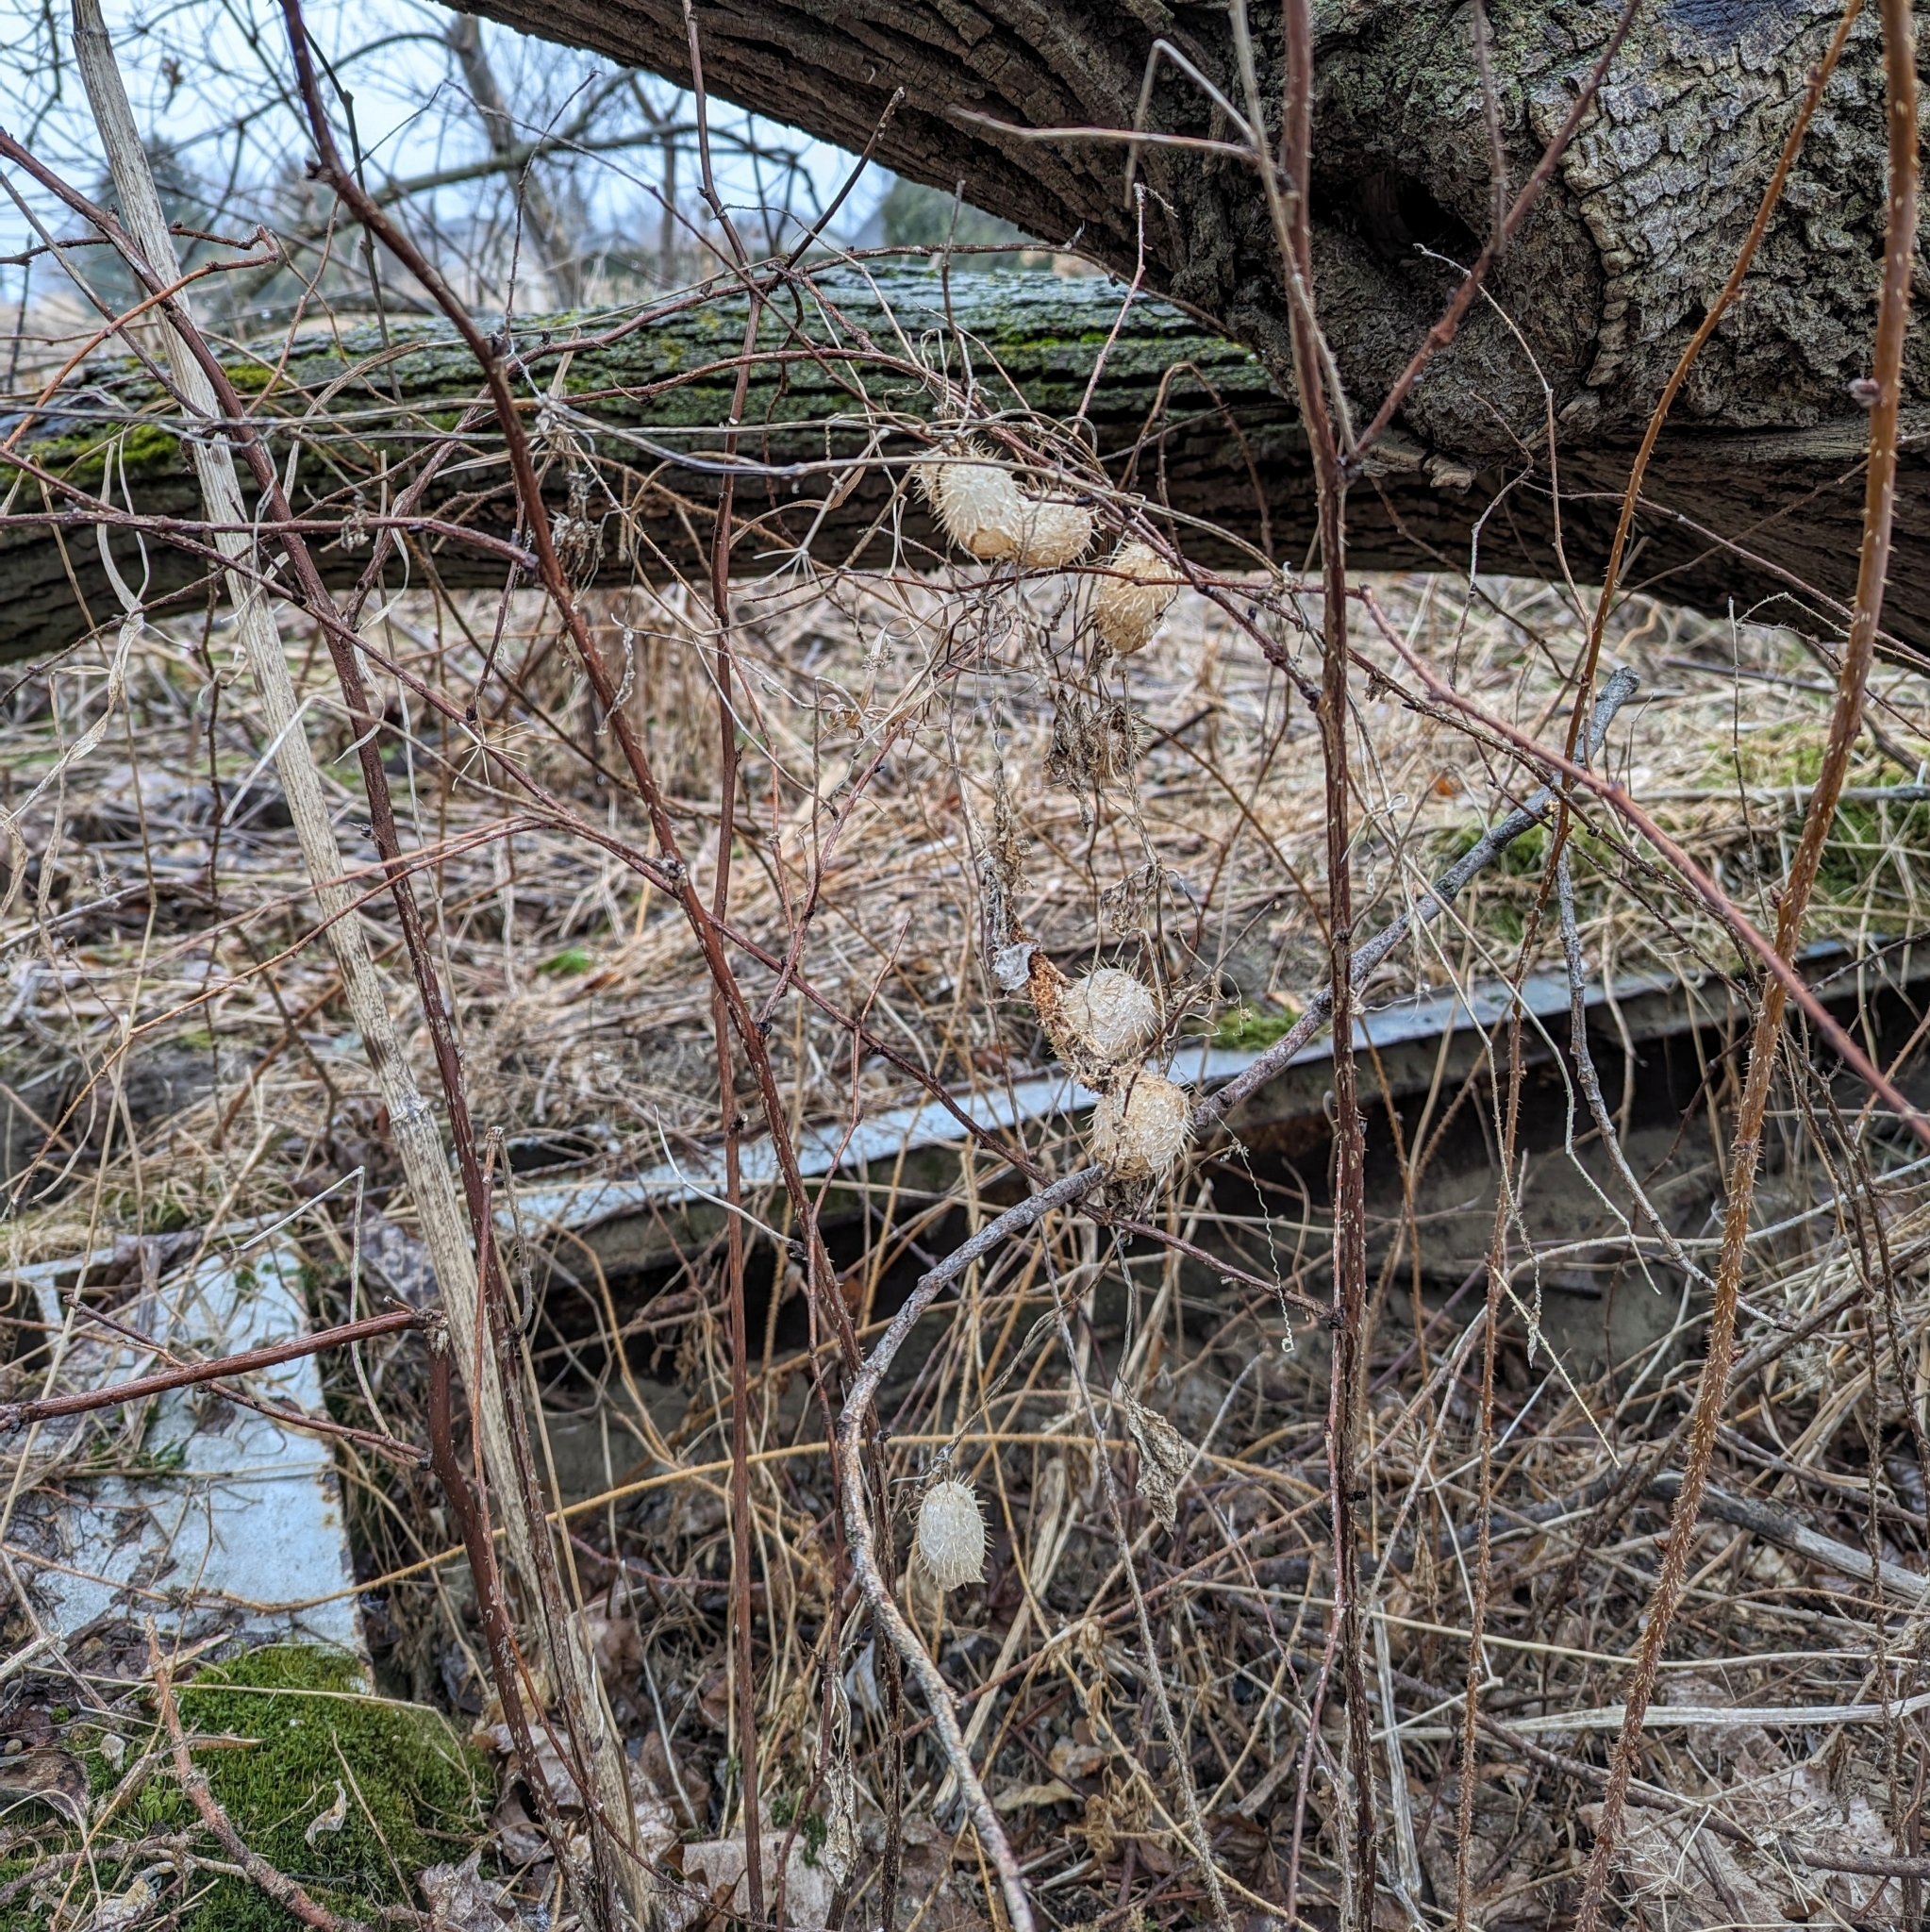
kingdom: Plantae
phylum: Tracheophyta
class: Magnoliopsida
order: Cucurbitales
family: Cucurbitaceae
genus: Echinocystis
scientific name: Echinocystis lobata
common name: Wild cucumber
